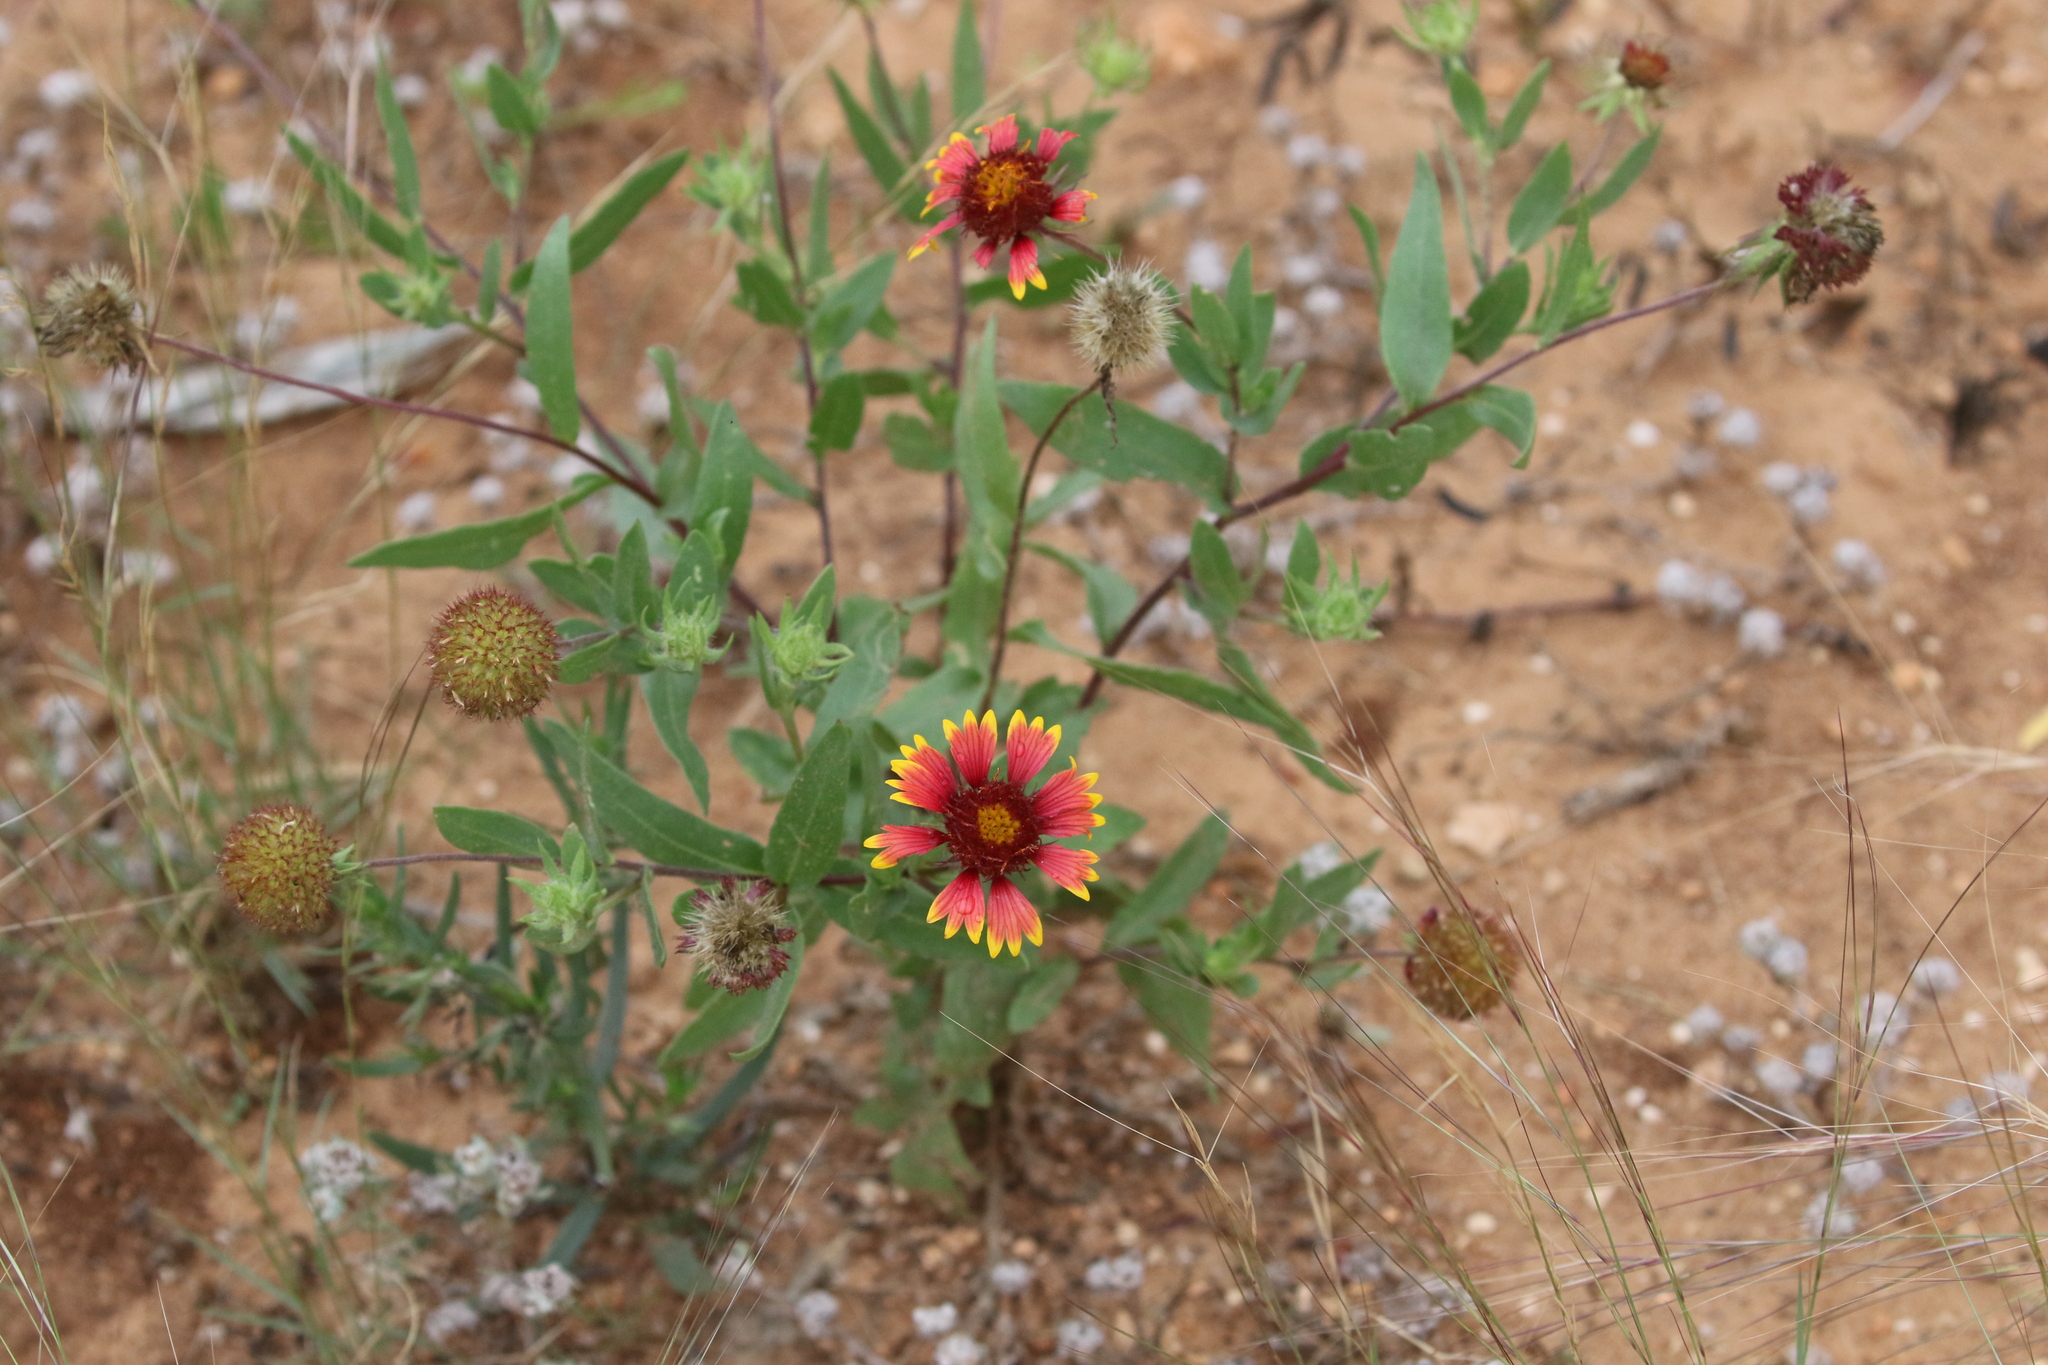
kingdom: Plantae
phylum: Tracheophyta
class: Magnoliopsida
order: Asterales
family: Asteraceae
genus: Gaillardia
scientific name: Gaillardia pulchella
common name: Firewheel
